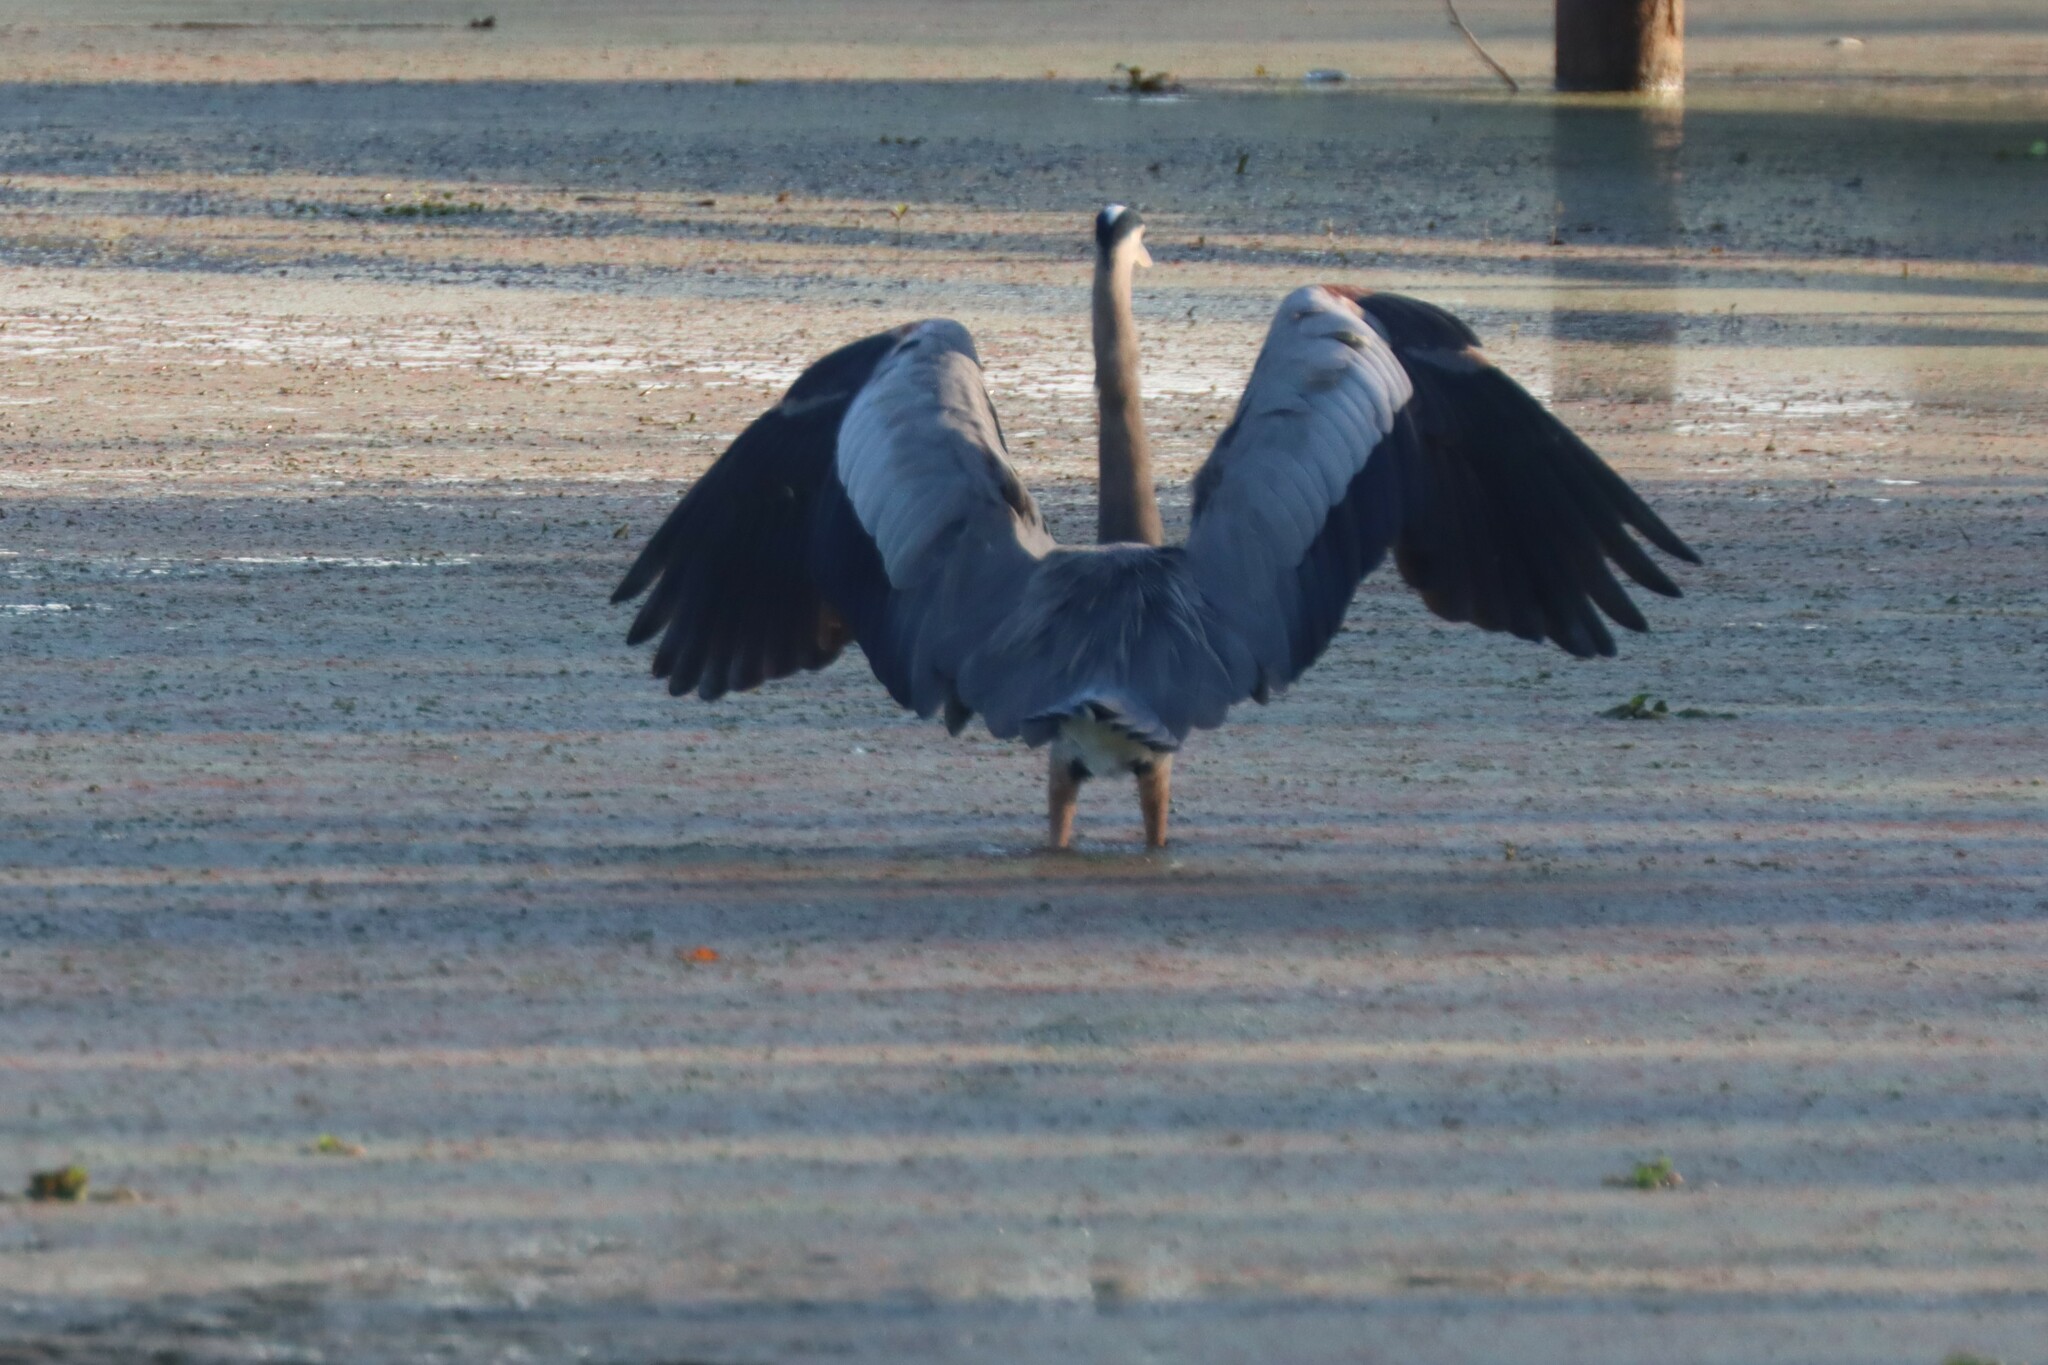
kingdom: Animalia
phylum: Chordata
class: Aves
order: Pelecaniformes
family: Ardeidae
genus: Ardea
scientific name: Ardea herodias
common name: Great blue heron
